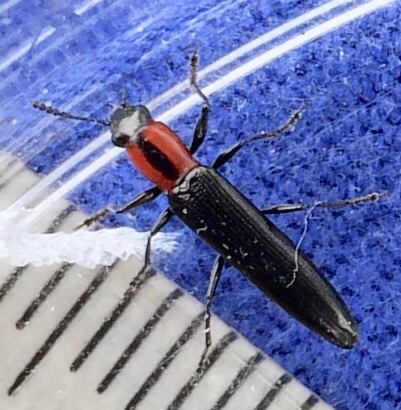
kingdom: Animalia
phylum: Arthropoda
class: Insecta
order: Coleoptera
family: Erotylidae
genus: Acropteroxys
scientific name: Acropteroxys gracilis
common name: Slender lizard beetle
